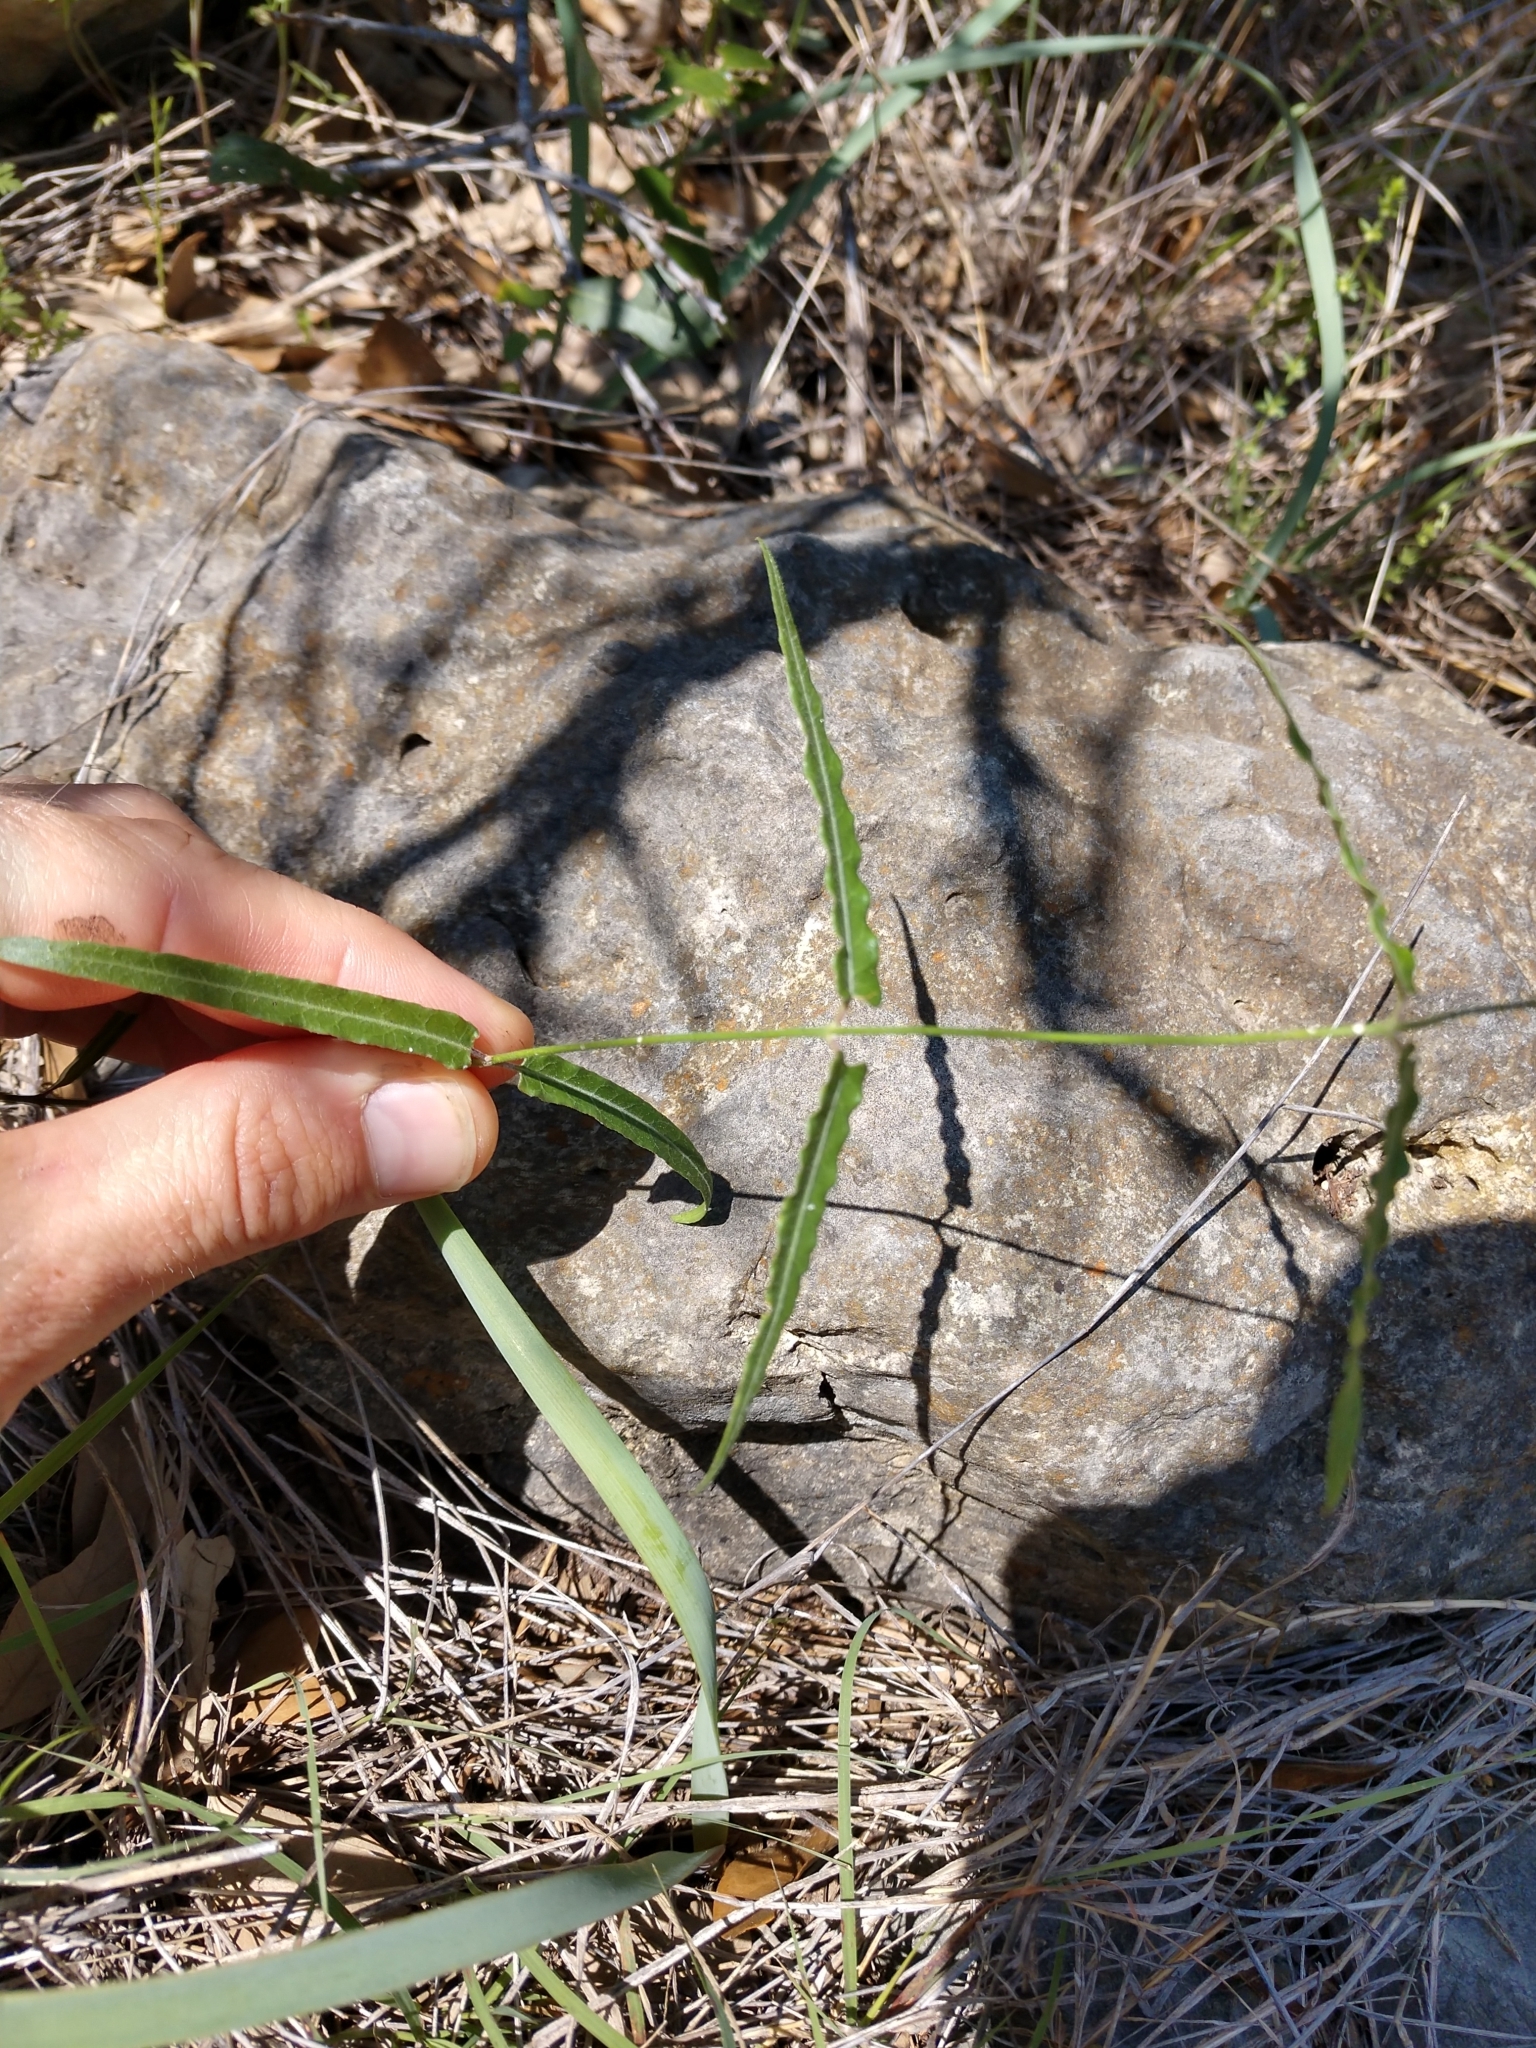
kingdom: Plantae
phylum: Tracheophyta
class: Magnoliopsida
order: Gentianales
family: Apocynaceae
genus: Funastrum
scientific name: Funastrum crispum
